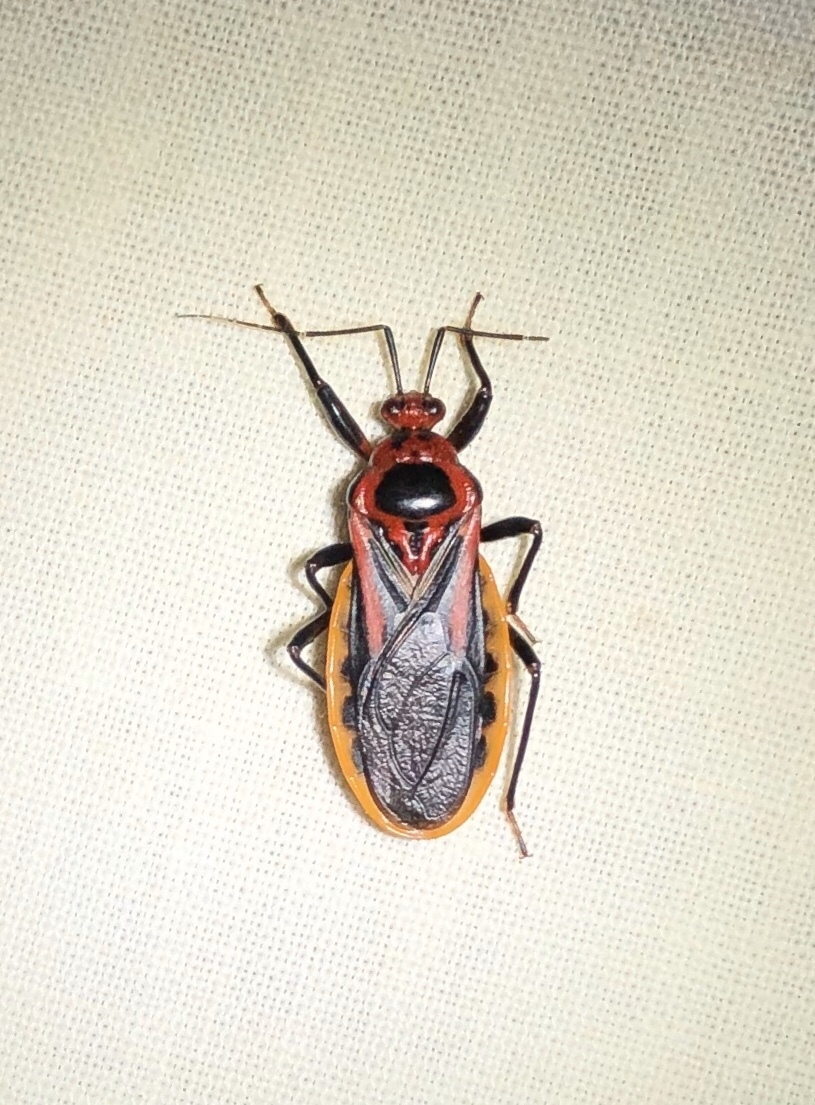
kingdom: Animalia
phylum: Arthropoda
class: Insecta
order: Hemiptera
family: Reduviidae
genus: Brontostoma
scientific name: Brontostoma discus
